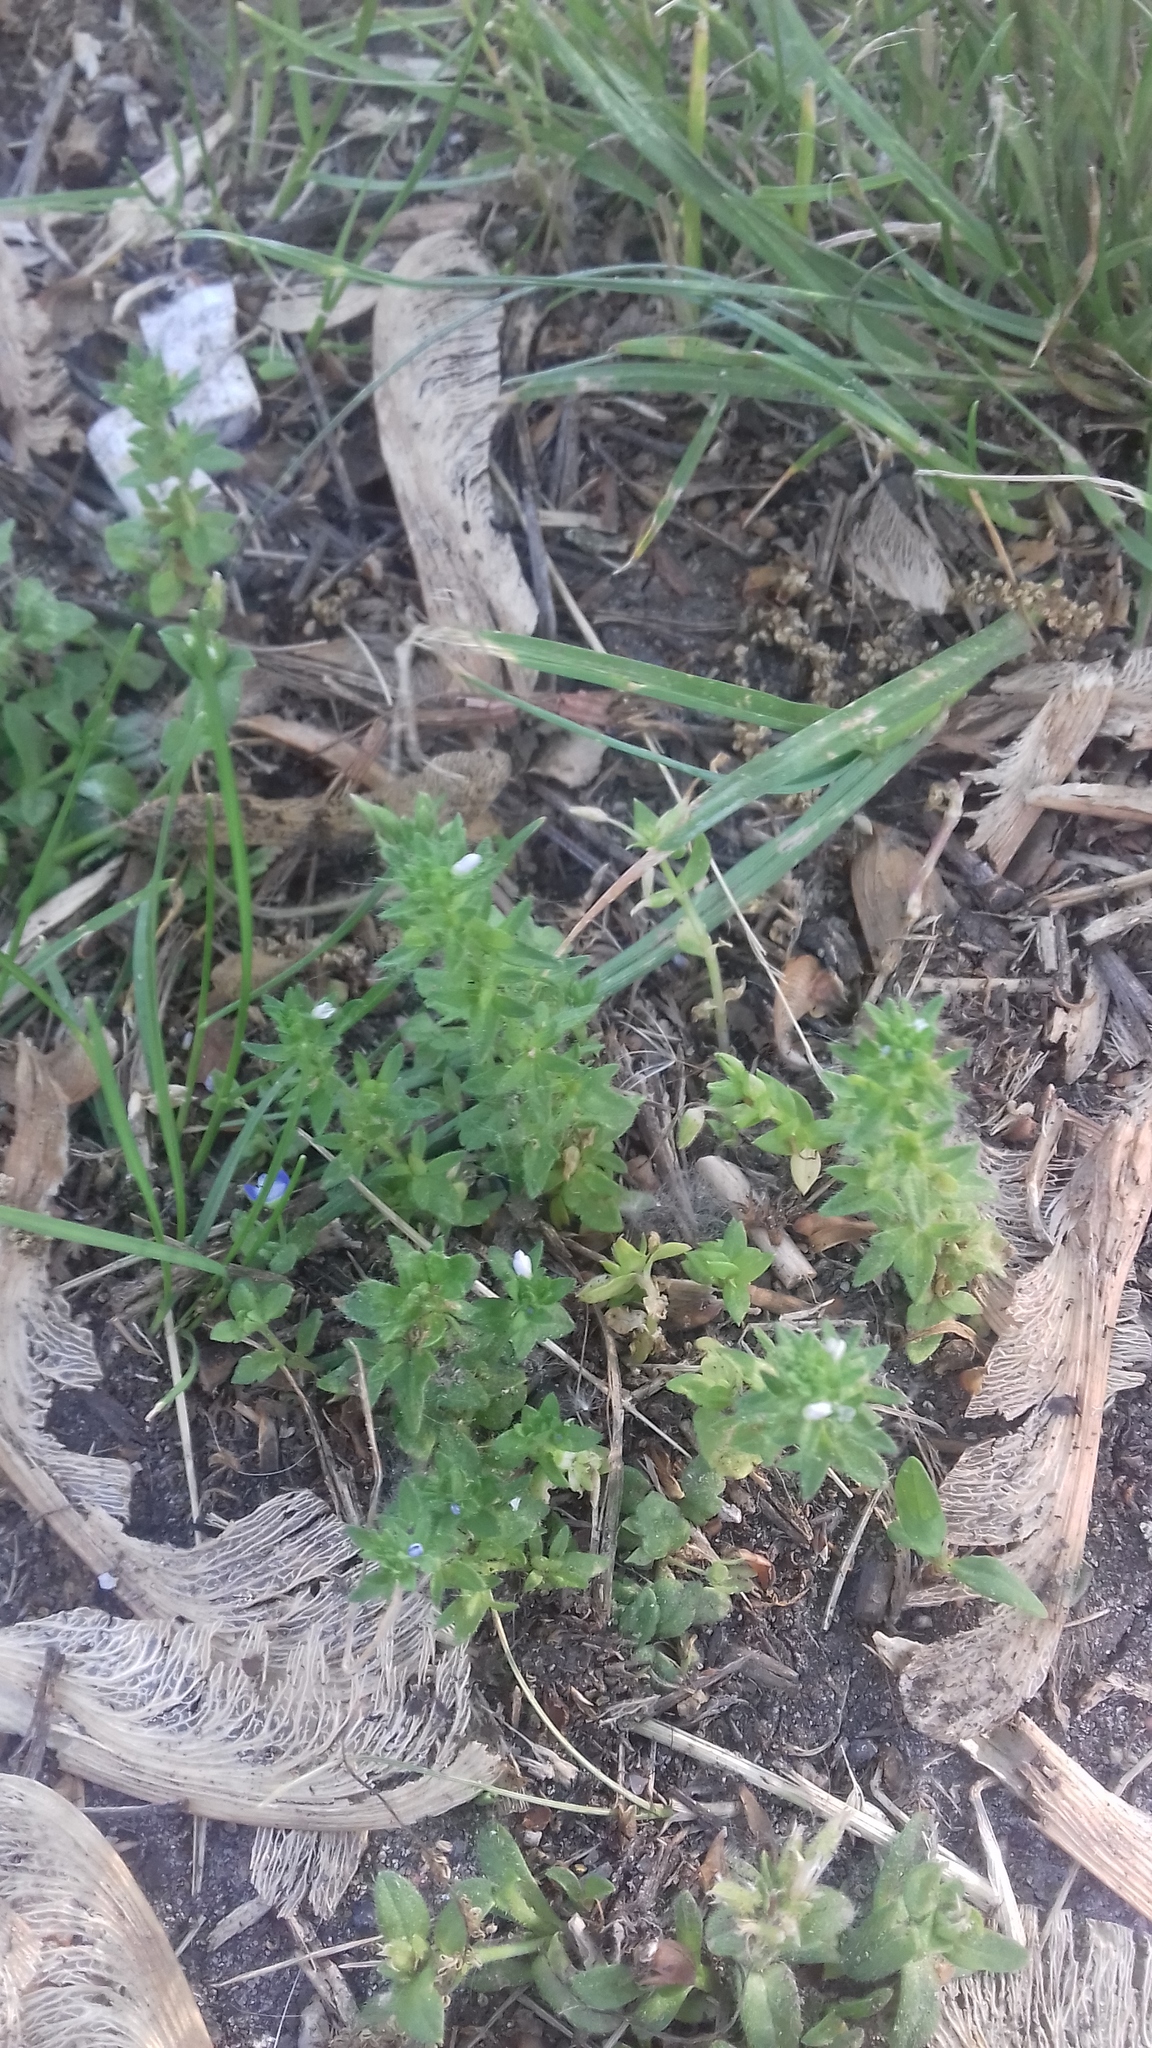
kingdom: Plantae
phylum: Tracheophyta
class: Magnoliopsida
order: Lamiales
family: Plantaginaceae
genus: Veronica
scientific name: Veronica arvensis
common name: Corn speedwell
